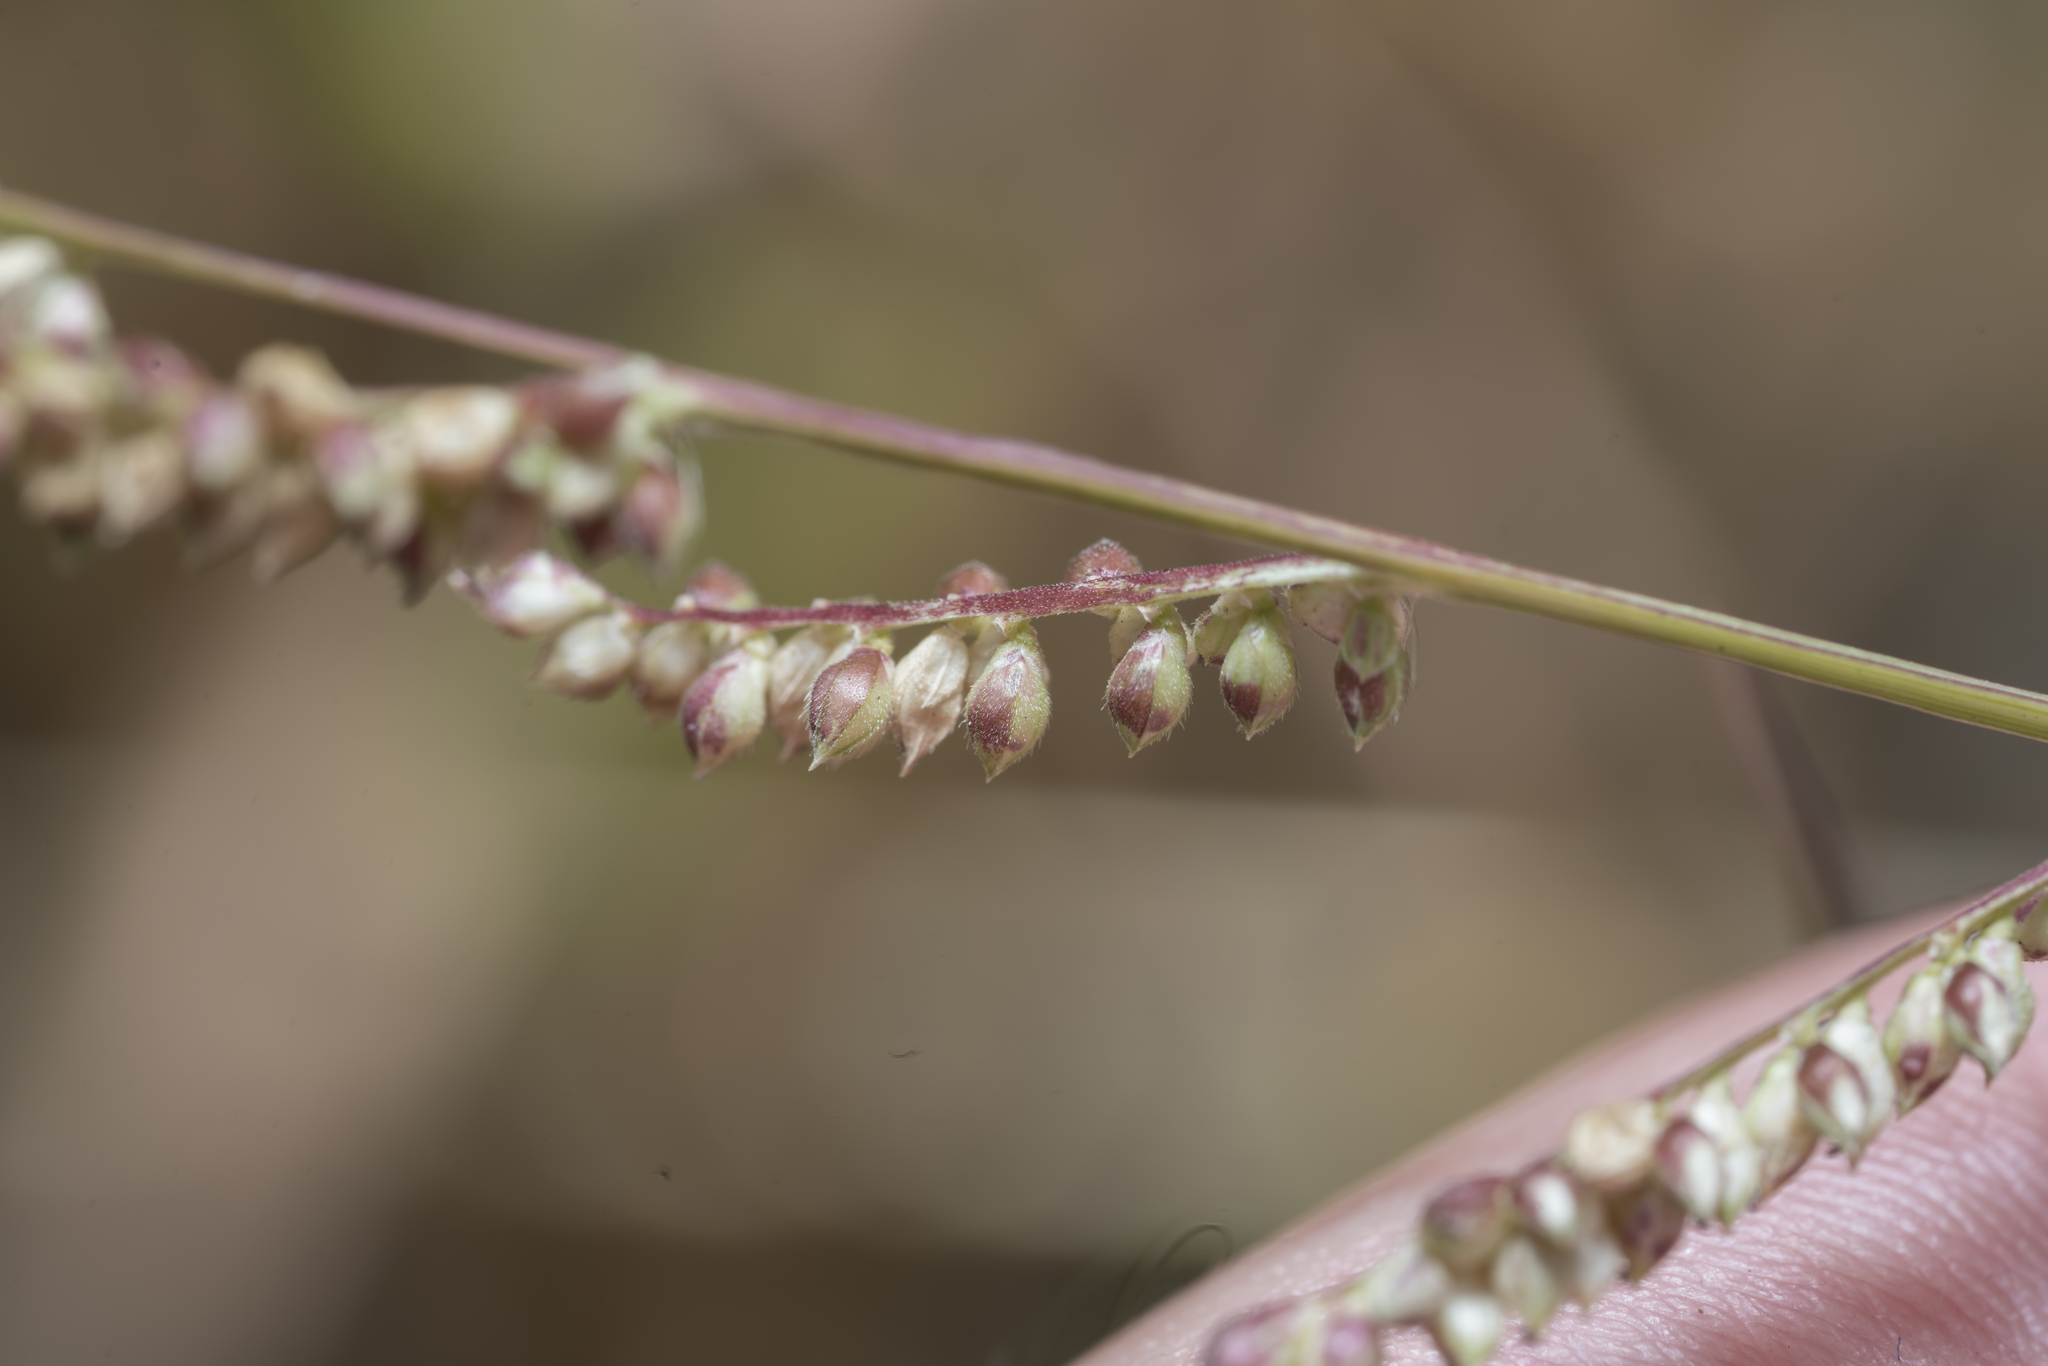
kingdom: Plantae
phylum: Tracheophyta
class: Liliopsida
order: Poales
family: Poaceae
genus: Echinochloa
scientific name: Echinochloa colonum
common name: Jungle rice
